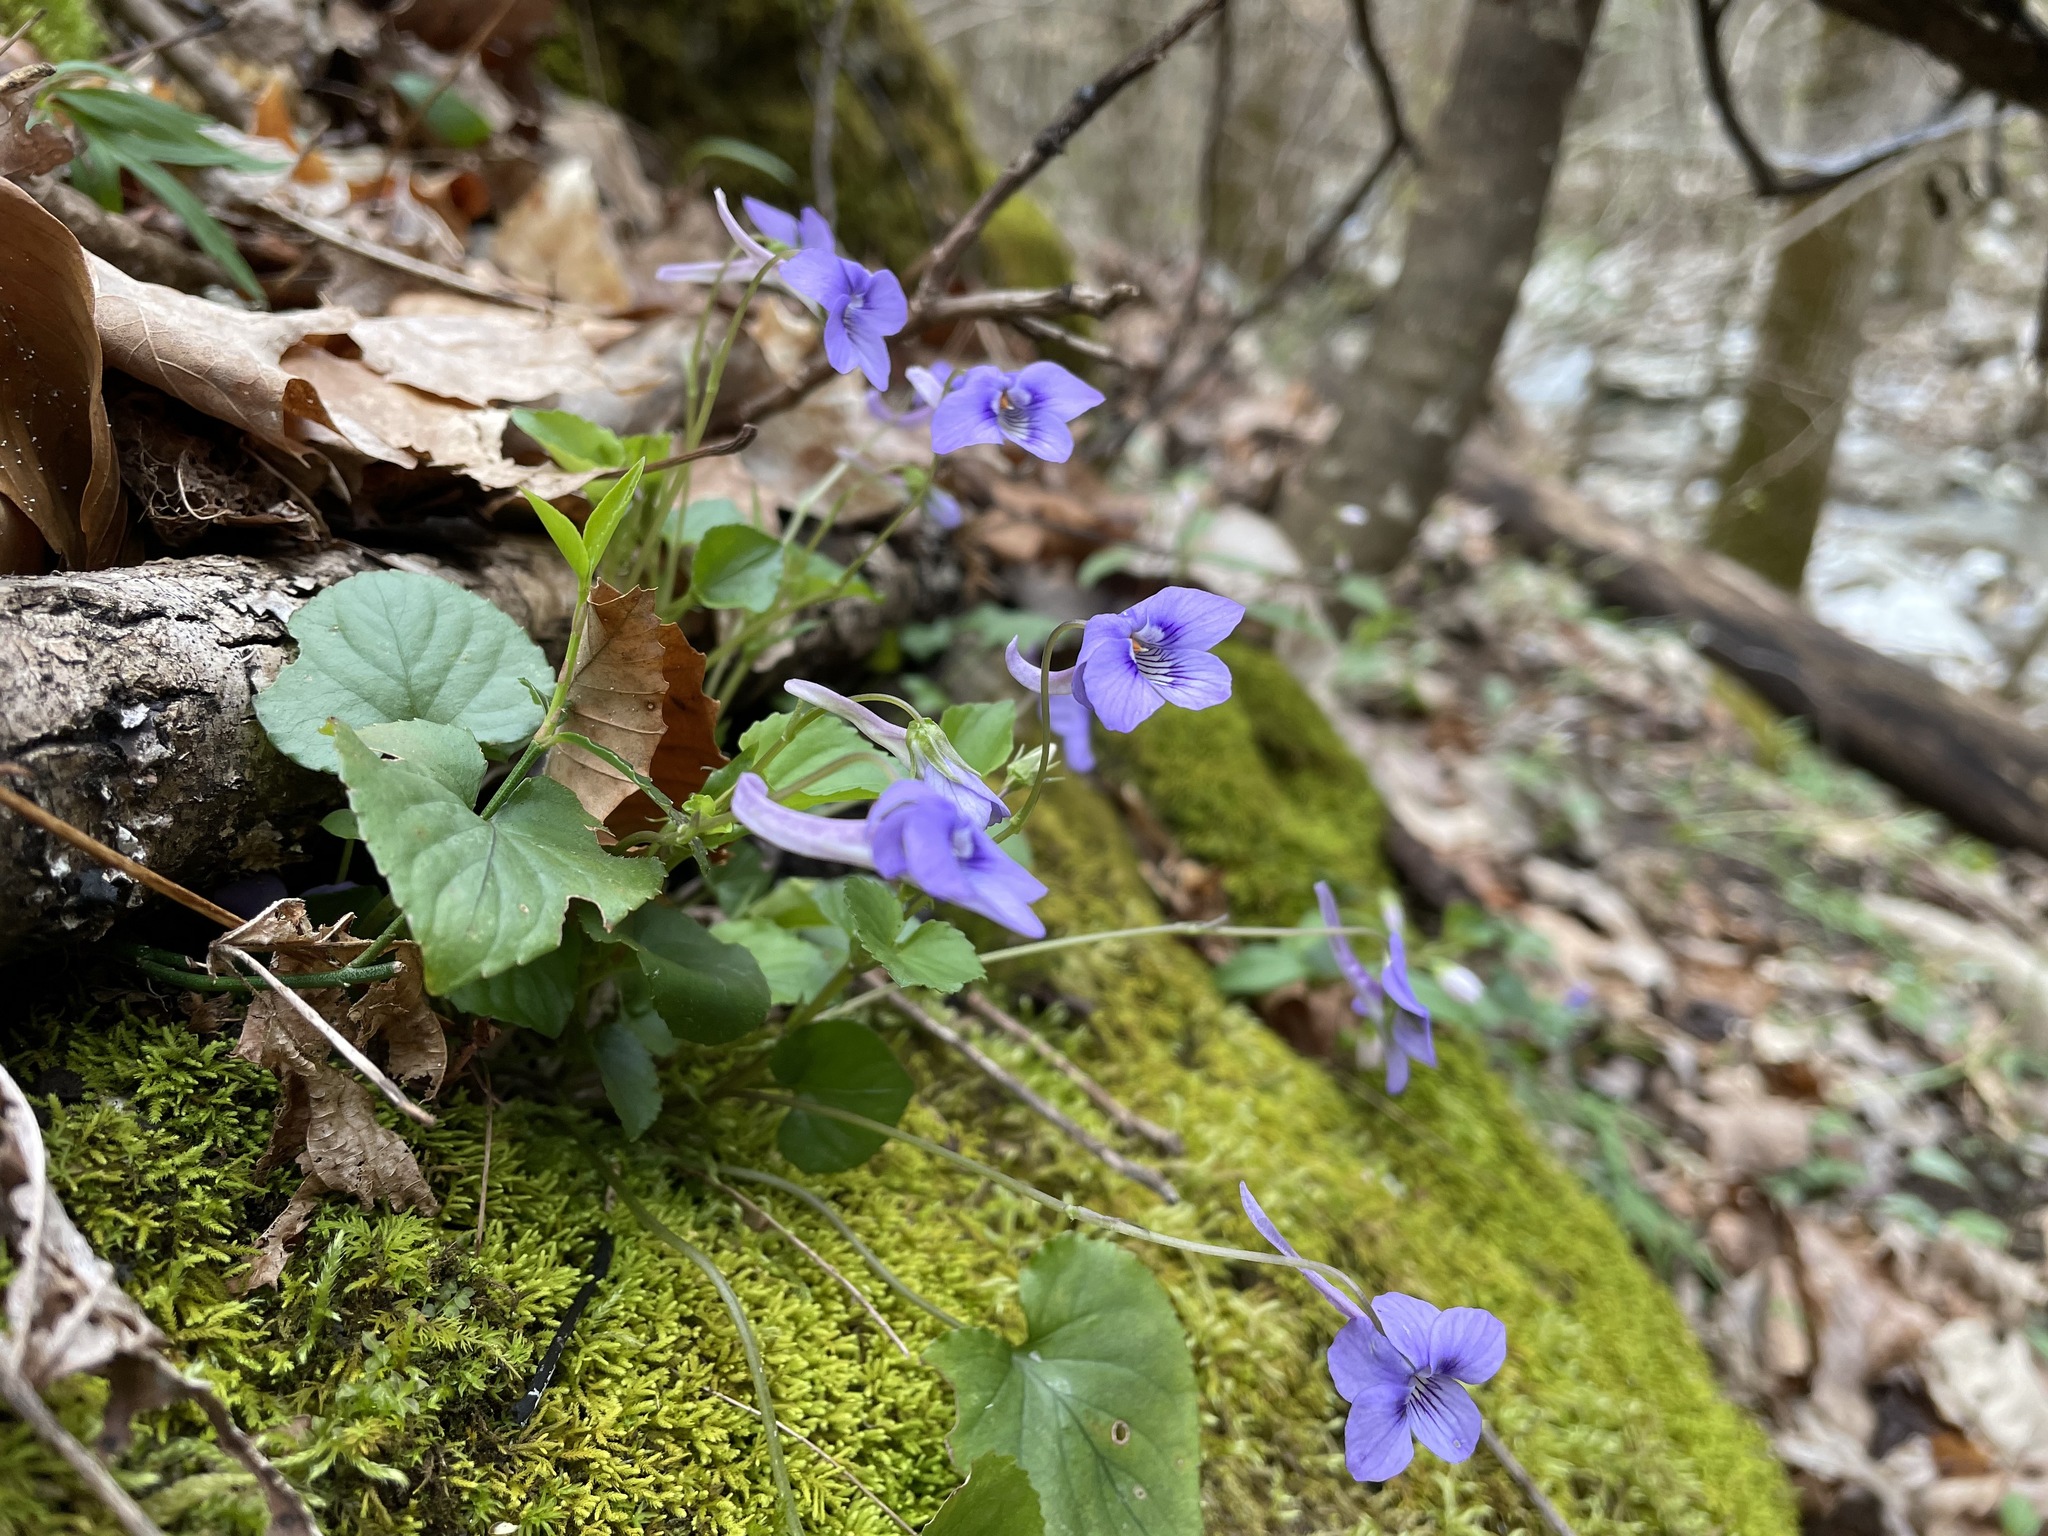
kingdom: Plantae
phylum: Tracheophyta
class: Magnoliopsida
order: Malpighiales
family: Violaceae
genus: Viola
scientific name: Viola rostrata
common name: Long-spur violet
